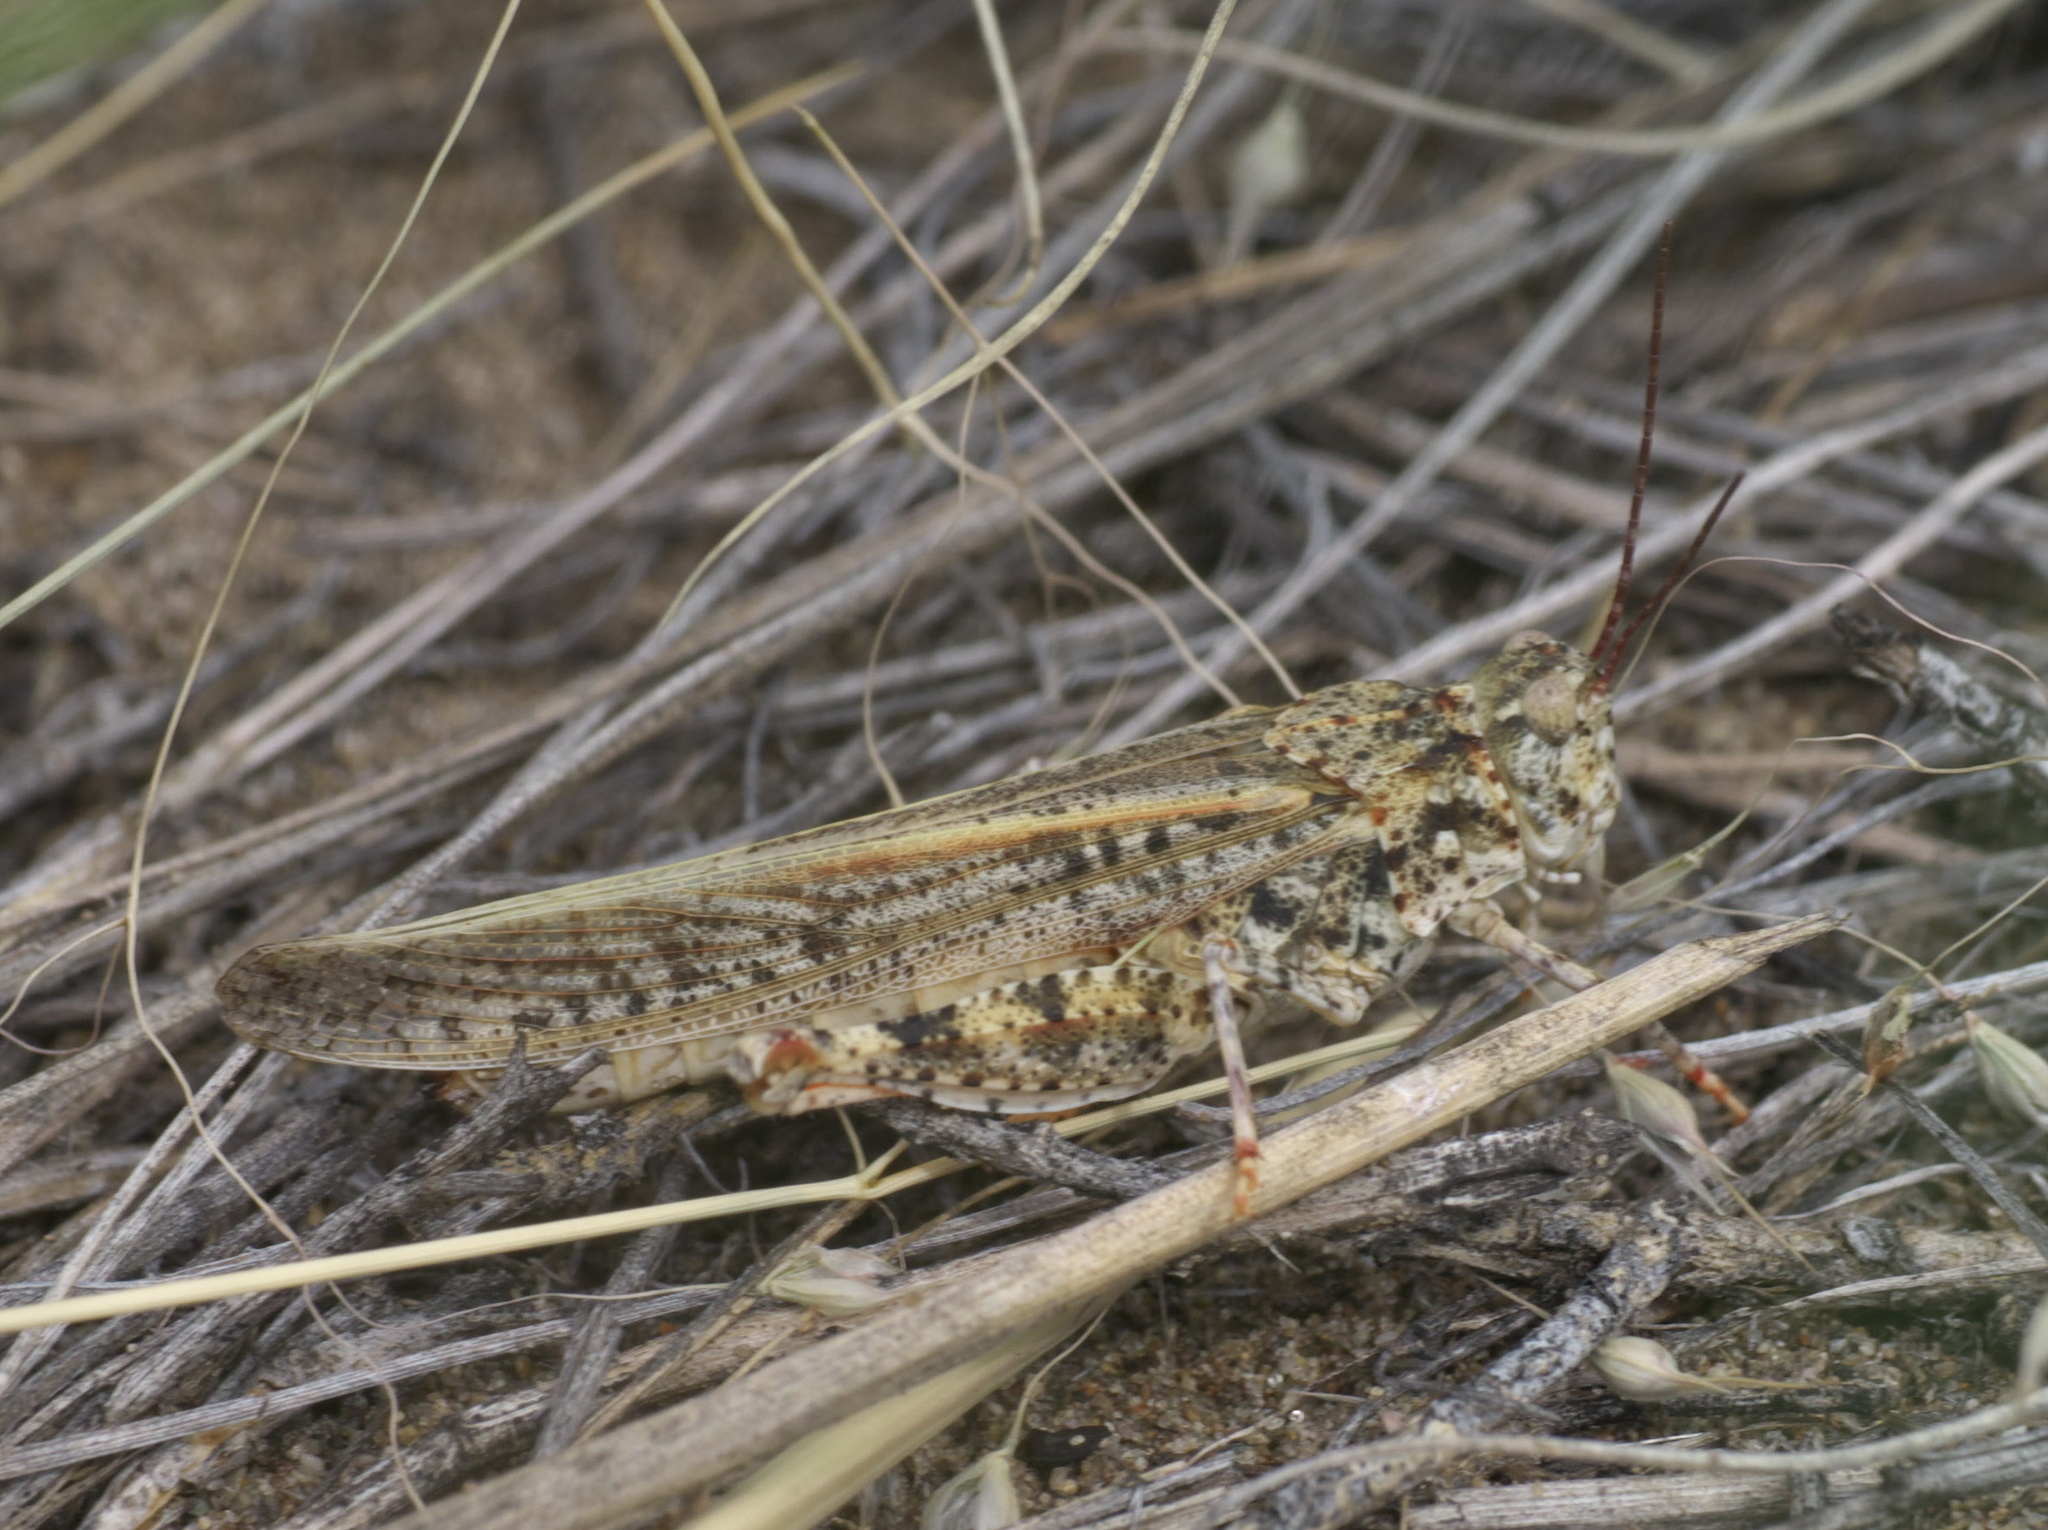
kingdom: Animalia
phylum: Arthropoda
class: Insecta
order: Orthoptera
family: Acrididae
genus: Trimerotropis
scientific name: Trimerotropis barnumi
